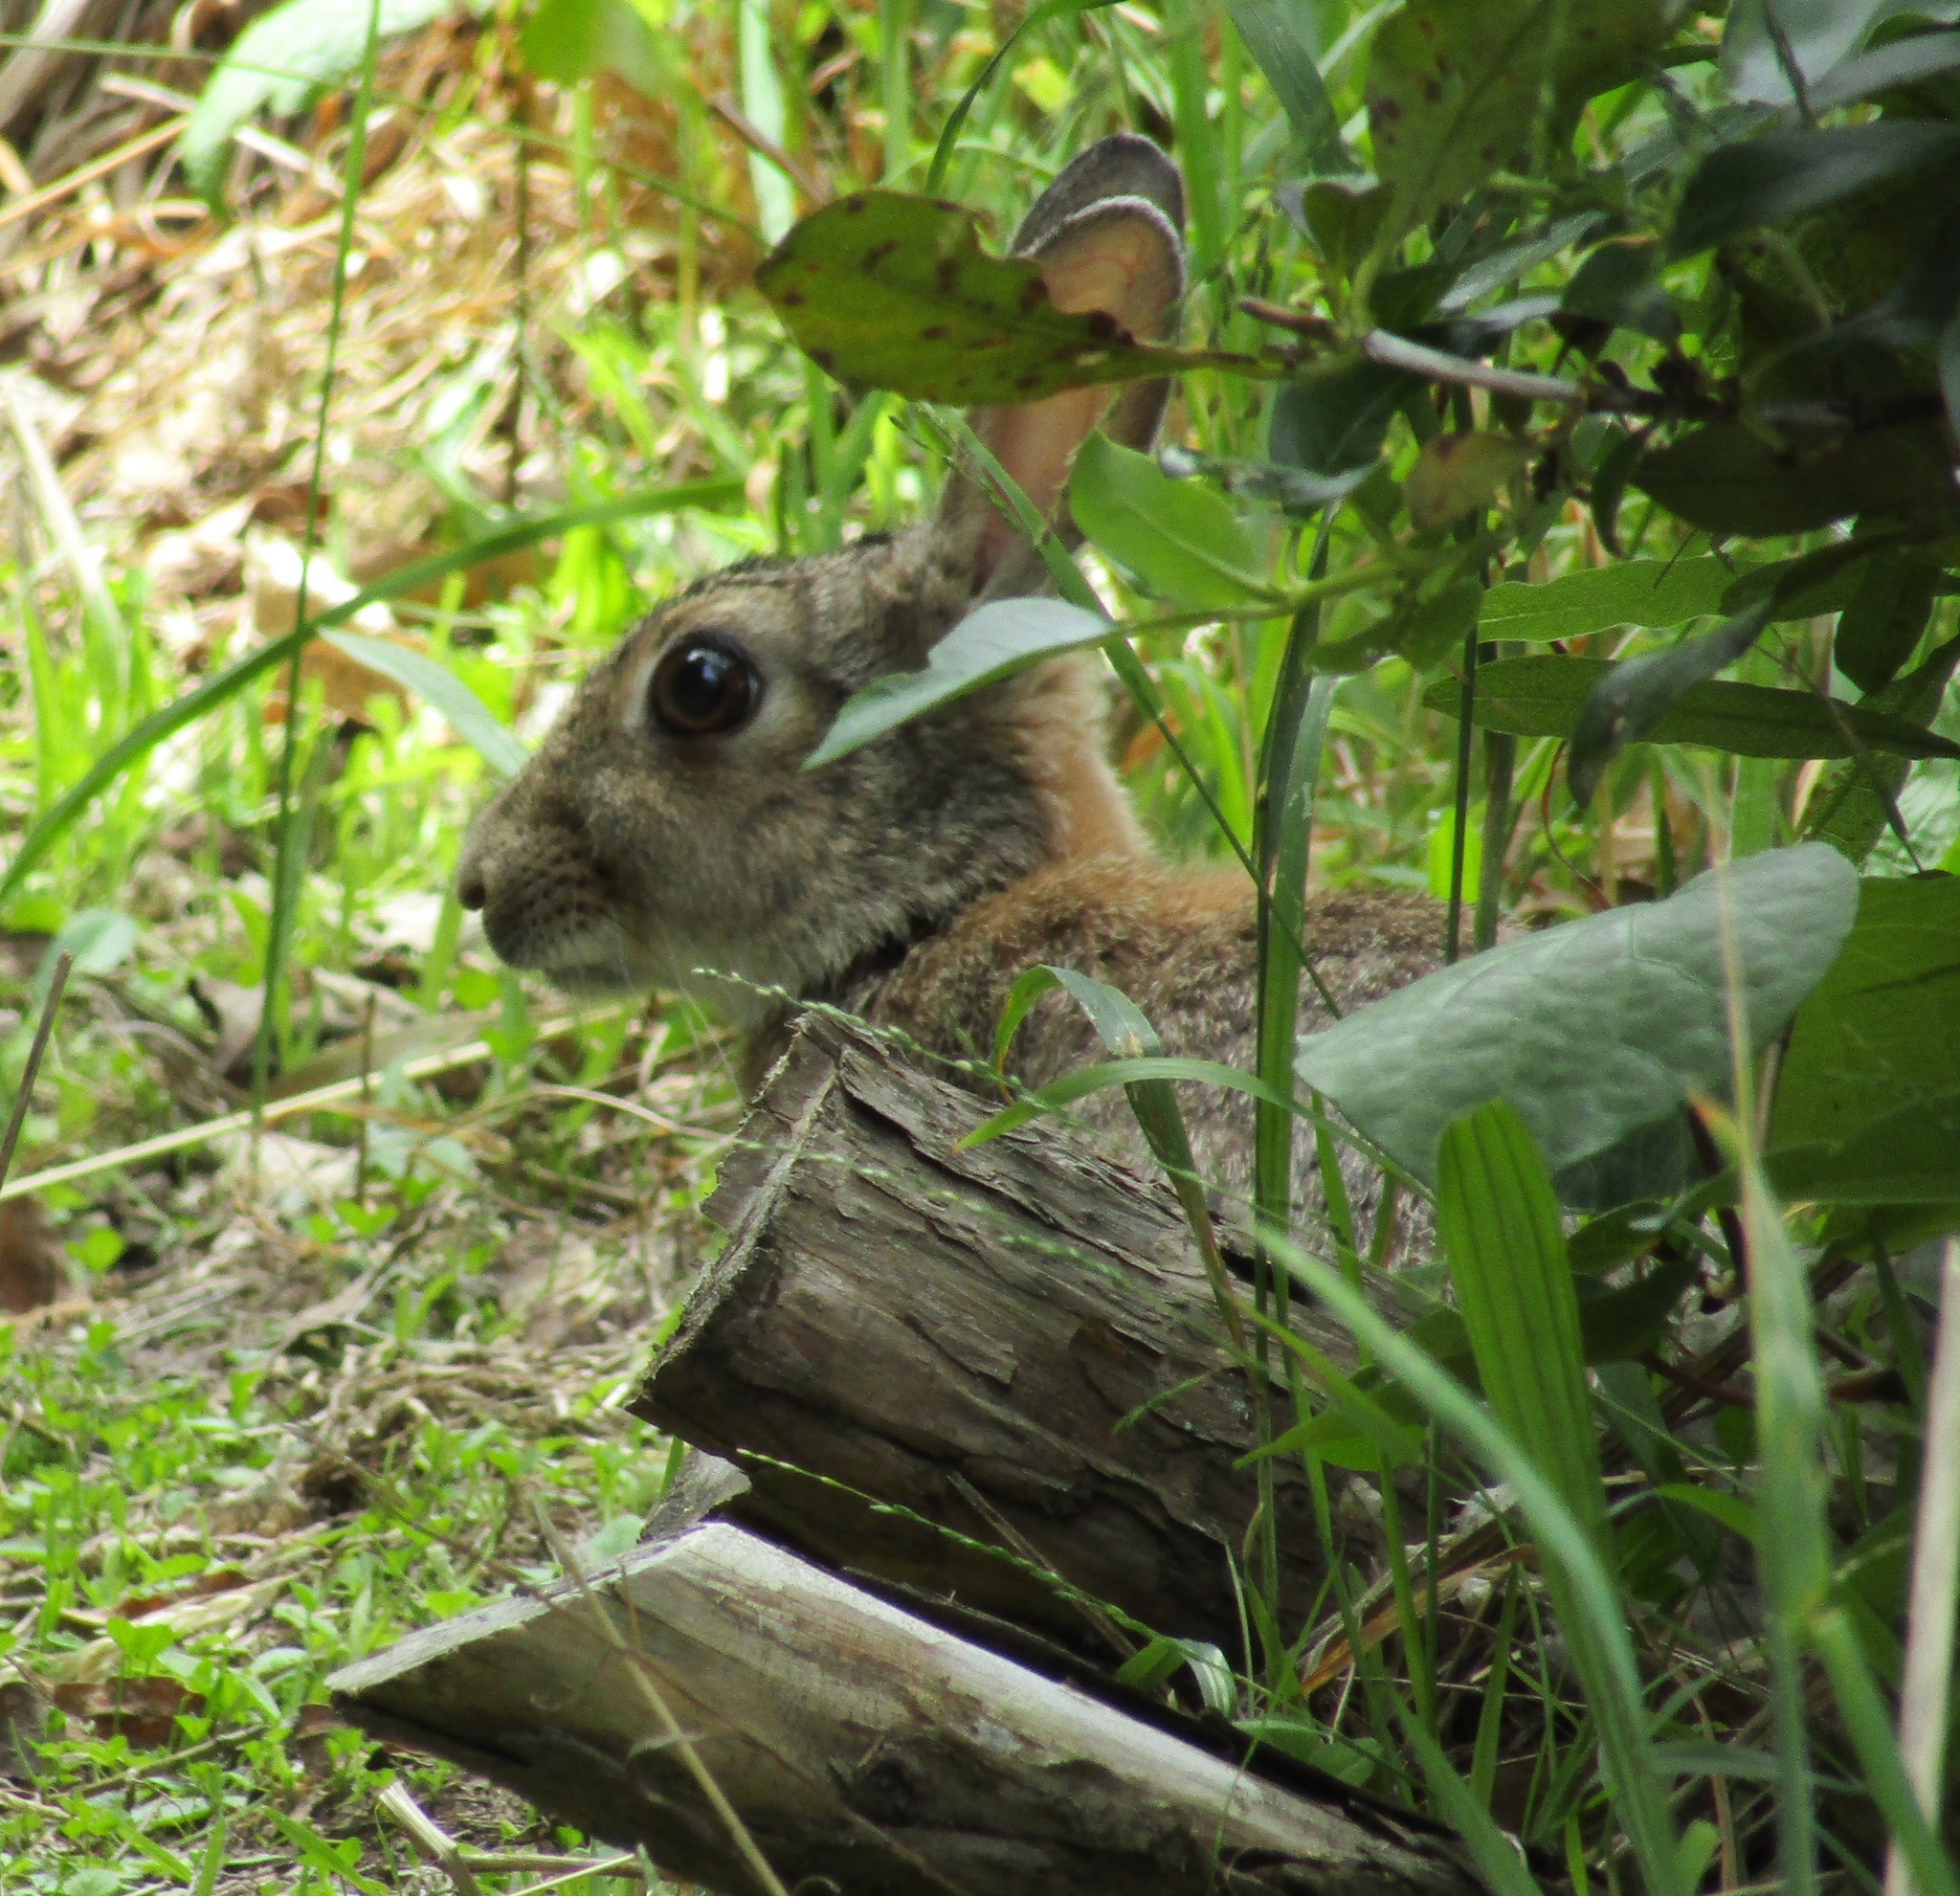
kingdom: Animalia
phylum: Chordata
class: Mammalia
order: Lagomorpha
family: Leporidae
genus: Oryctolagus
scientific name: Oryctolagus cuniculus
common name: European rabbit
